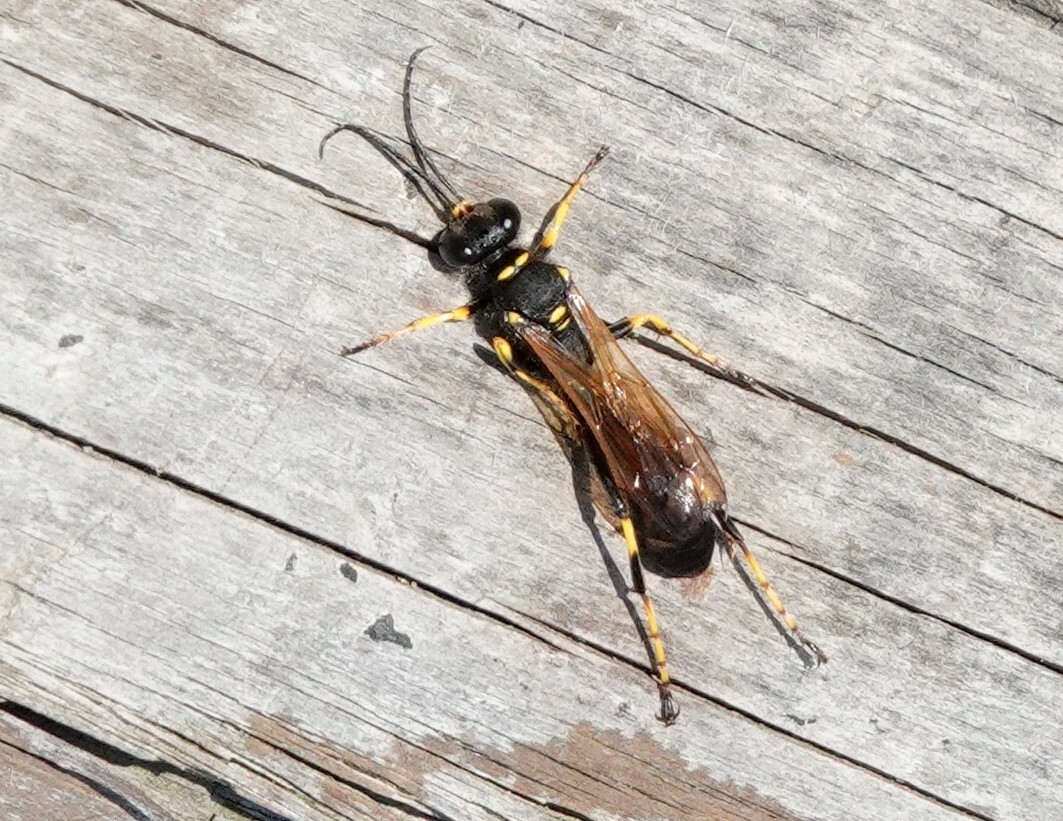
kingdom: Animalia
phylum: Arthropoda
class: Insecta
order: Hymenoptera
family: Sphecidae
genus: Sceliphron
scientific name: Sceliphron caementarium
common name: Mud dauber
